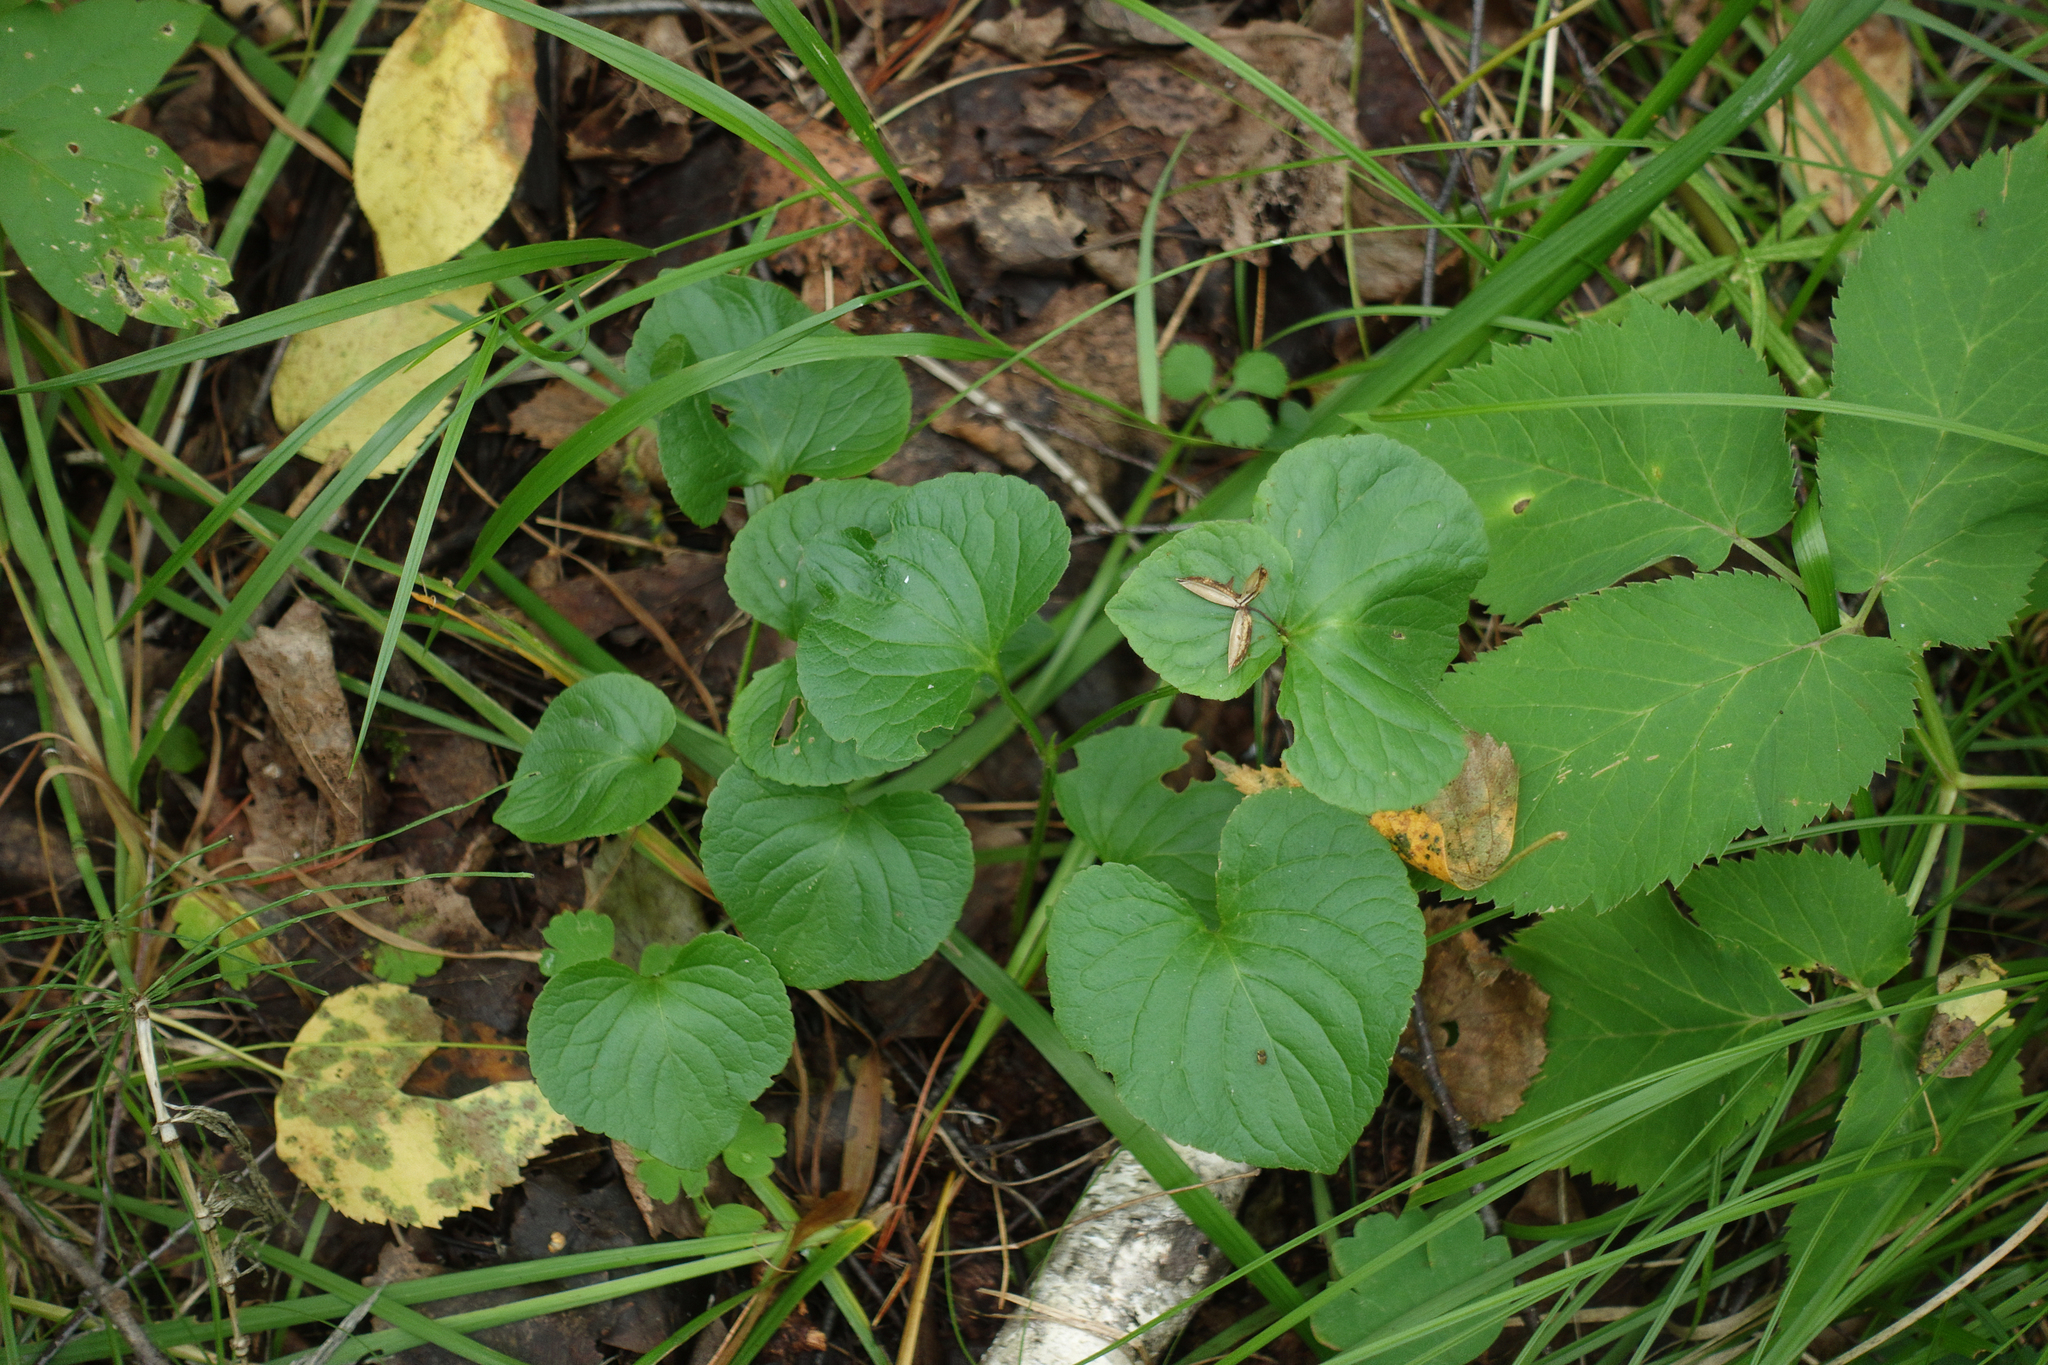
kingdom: Plantae
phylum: Tracheophyta
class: Magnoliopsida
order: Malpighiales
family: Violaceae
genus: Viola
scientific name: Viola mirabilis
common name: Wonder violet
